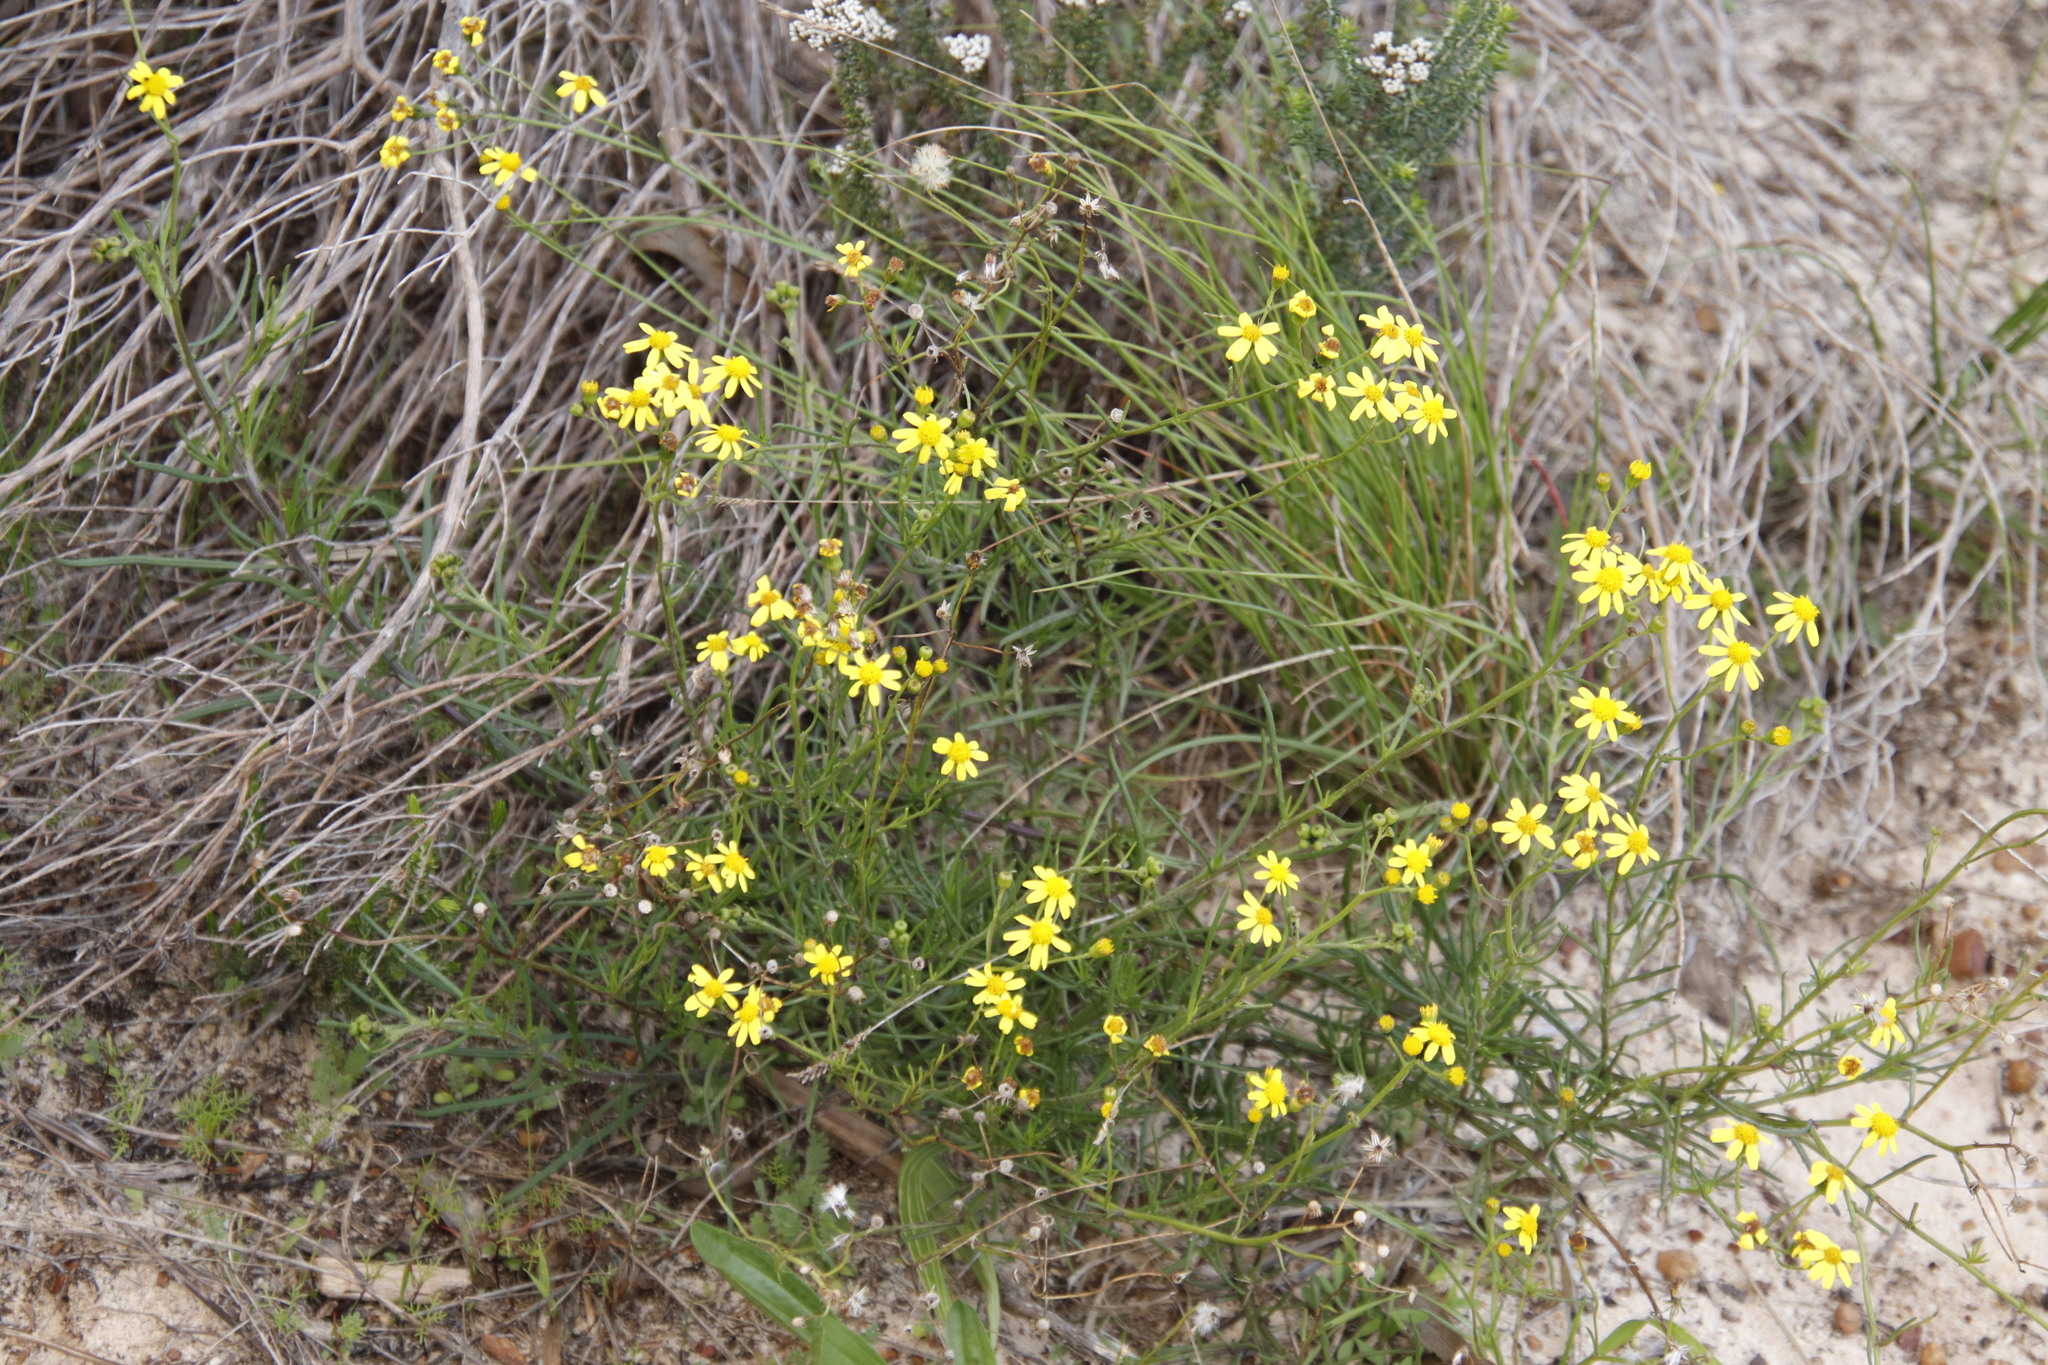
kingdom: Plantae
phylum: Tracheophyta
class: Magnoliopsida
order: Asterales
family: Asteraceae
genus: Senecio
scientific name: Senecio burchellii
